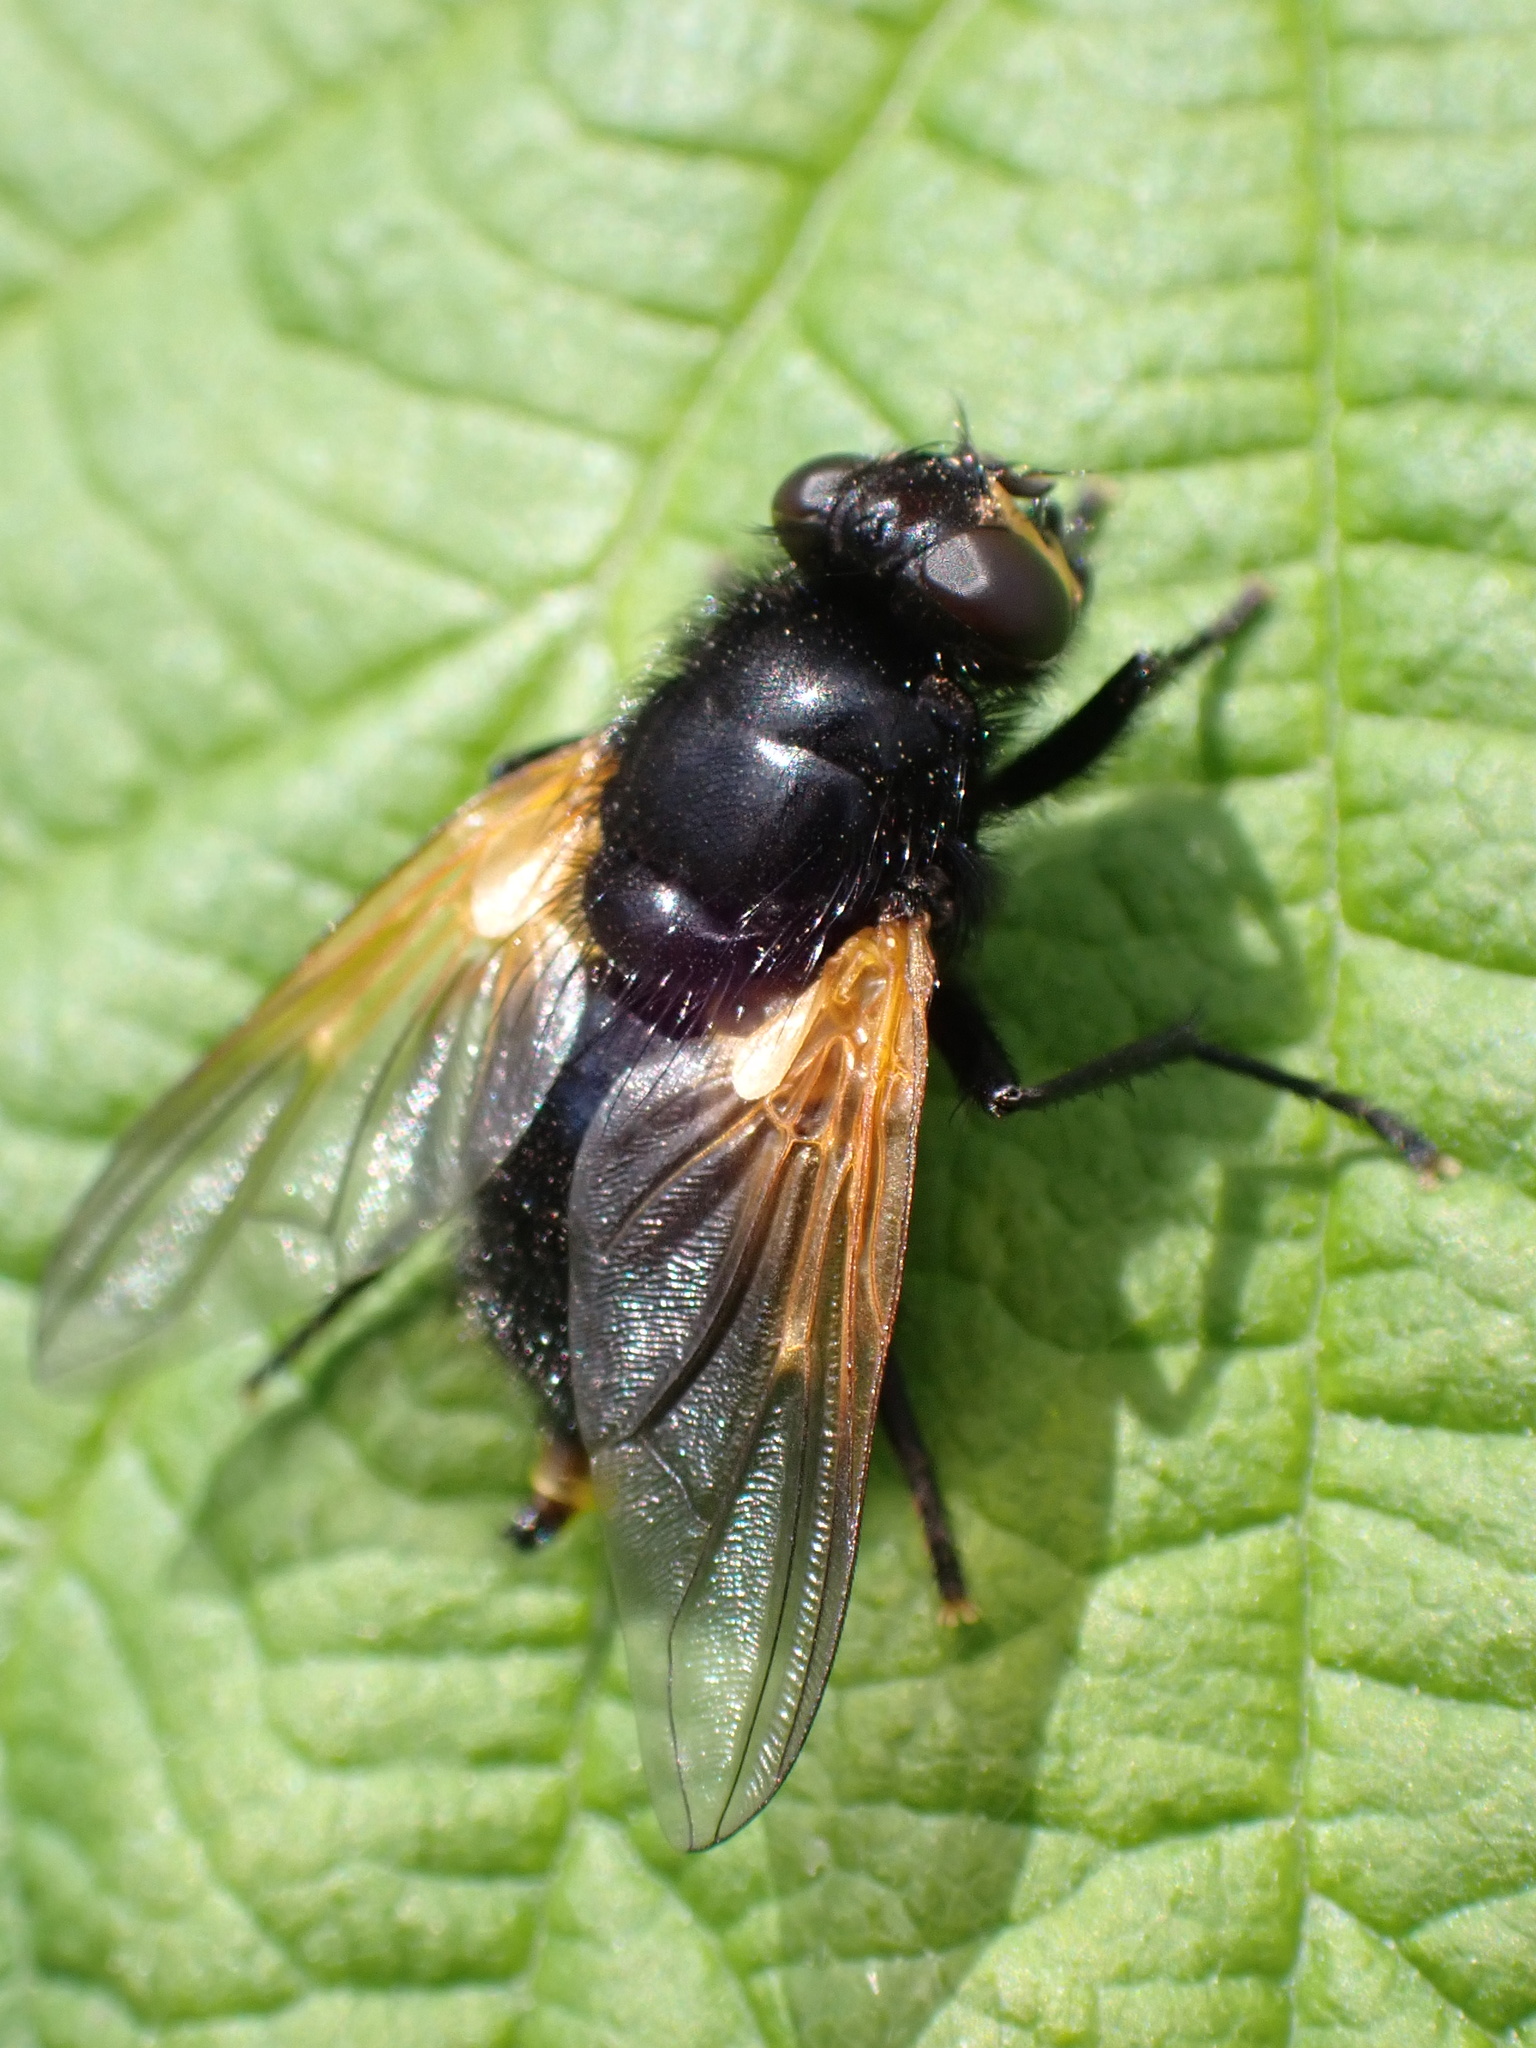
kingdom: Animalia
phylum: Arthropoda
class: Insecta
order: Diptera
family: Muscidae
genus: Mesembrina
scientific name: Mesembrina meridiana
